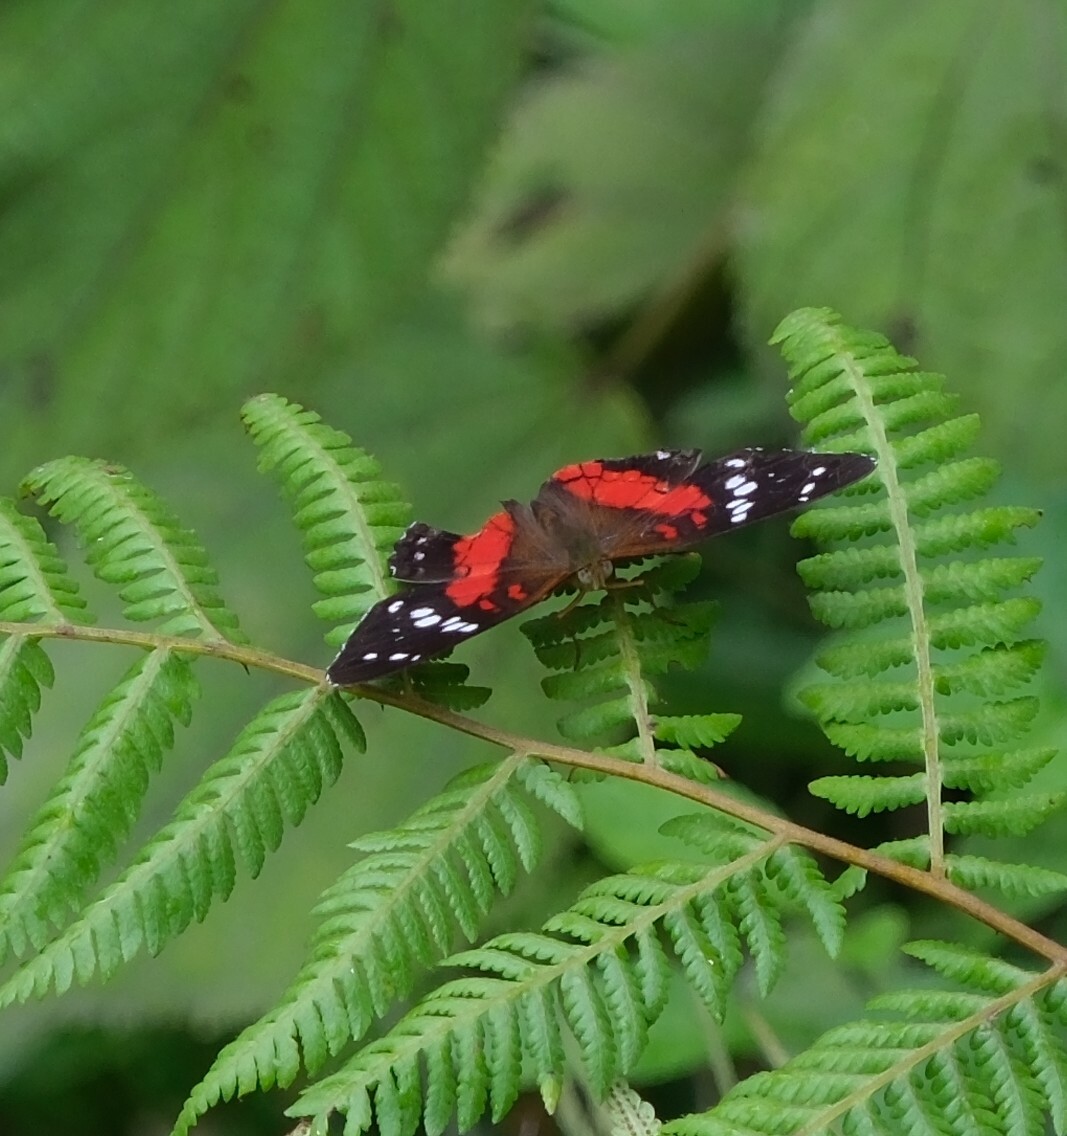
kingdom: Animalia
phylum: Arthropoda
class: Insecta
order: Lepidoptera
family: Nymphalidae
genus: Anartia
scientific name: Anartia amathea
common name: Red peacock
